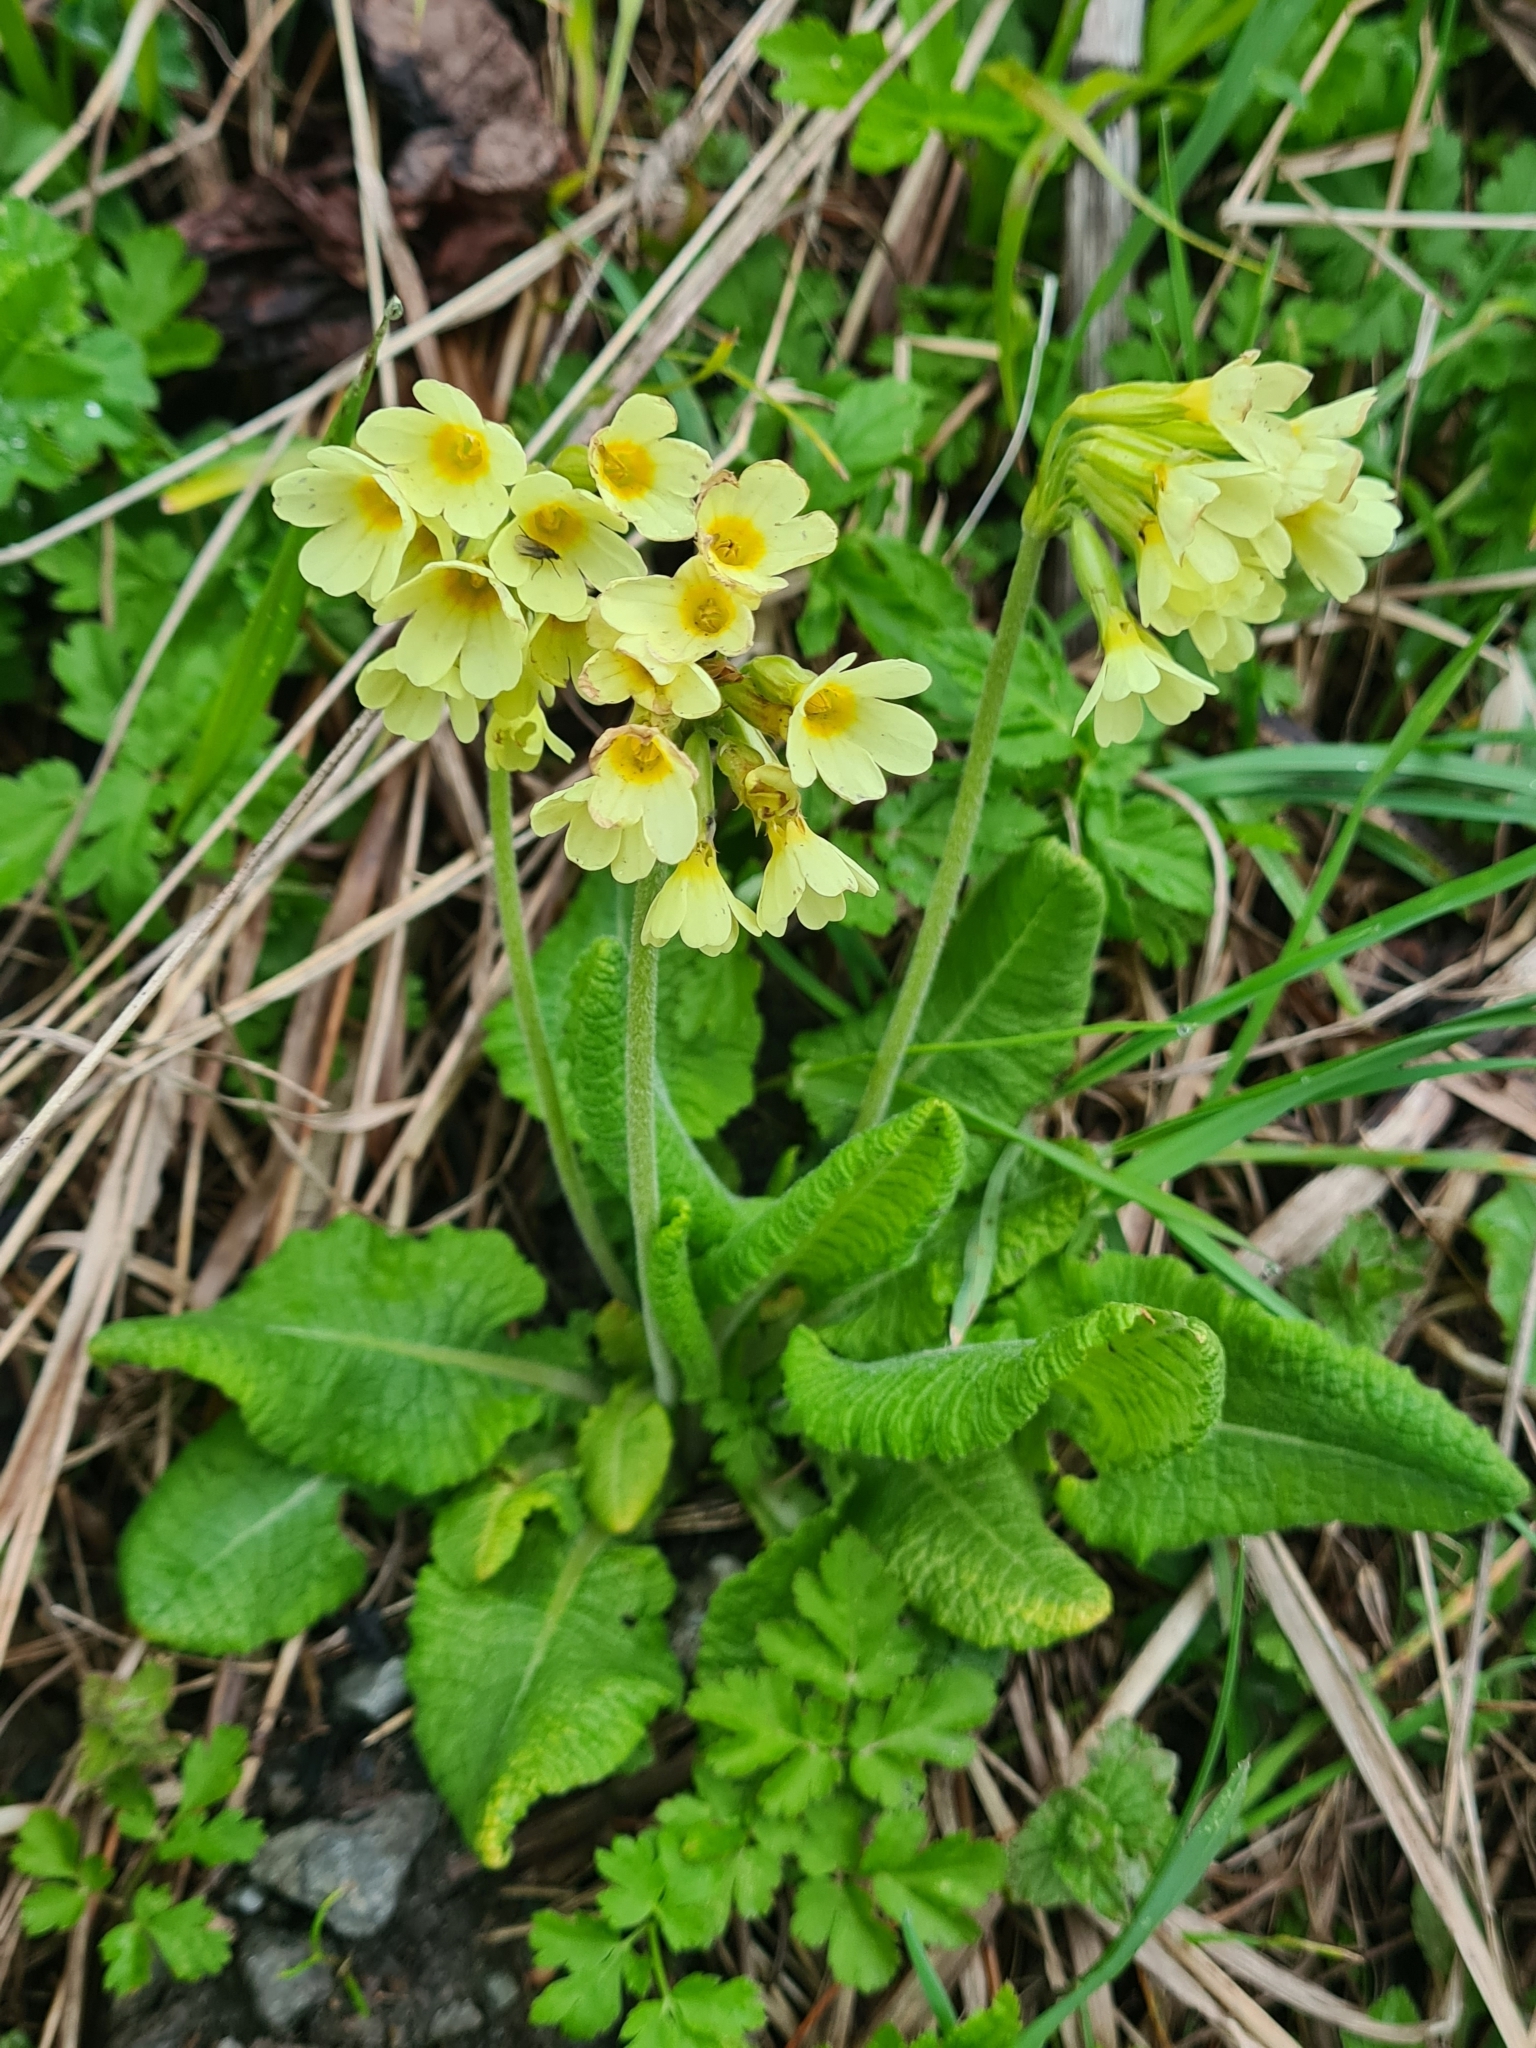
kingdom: Plantae
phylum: Tracheophyta
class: Magnoliopsida
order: Ericales
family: Primulaceae
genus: Primula
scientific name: Primula elatior
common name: Oxlip
